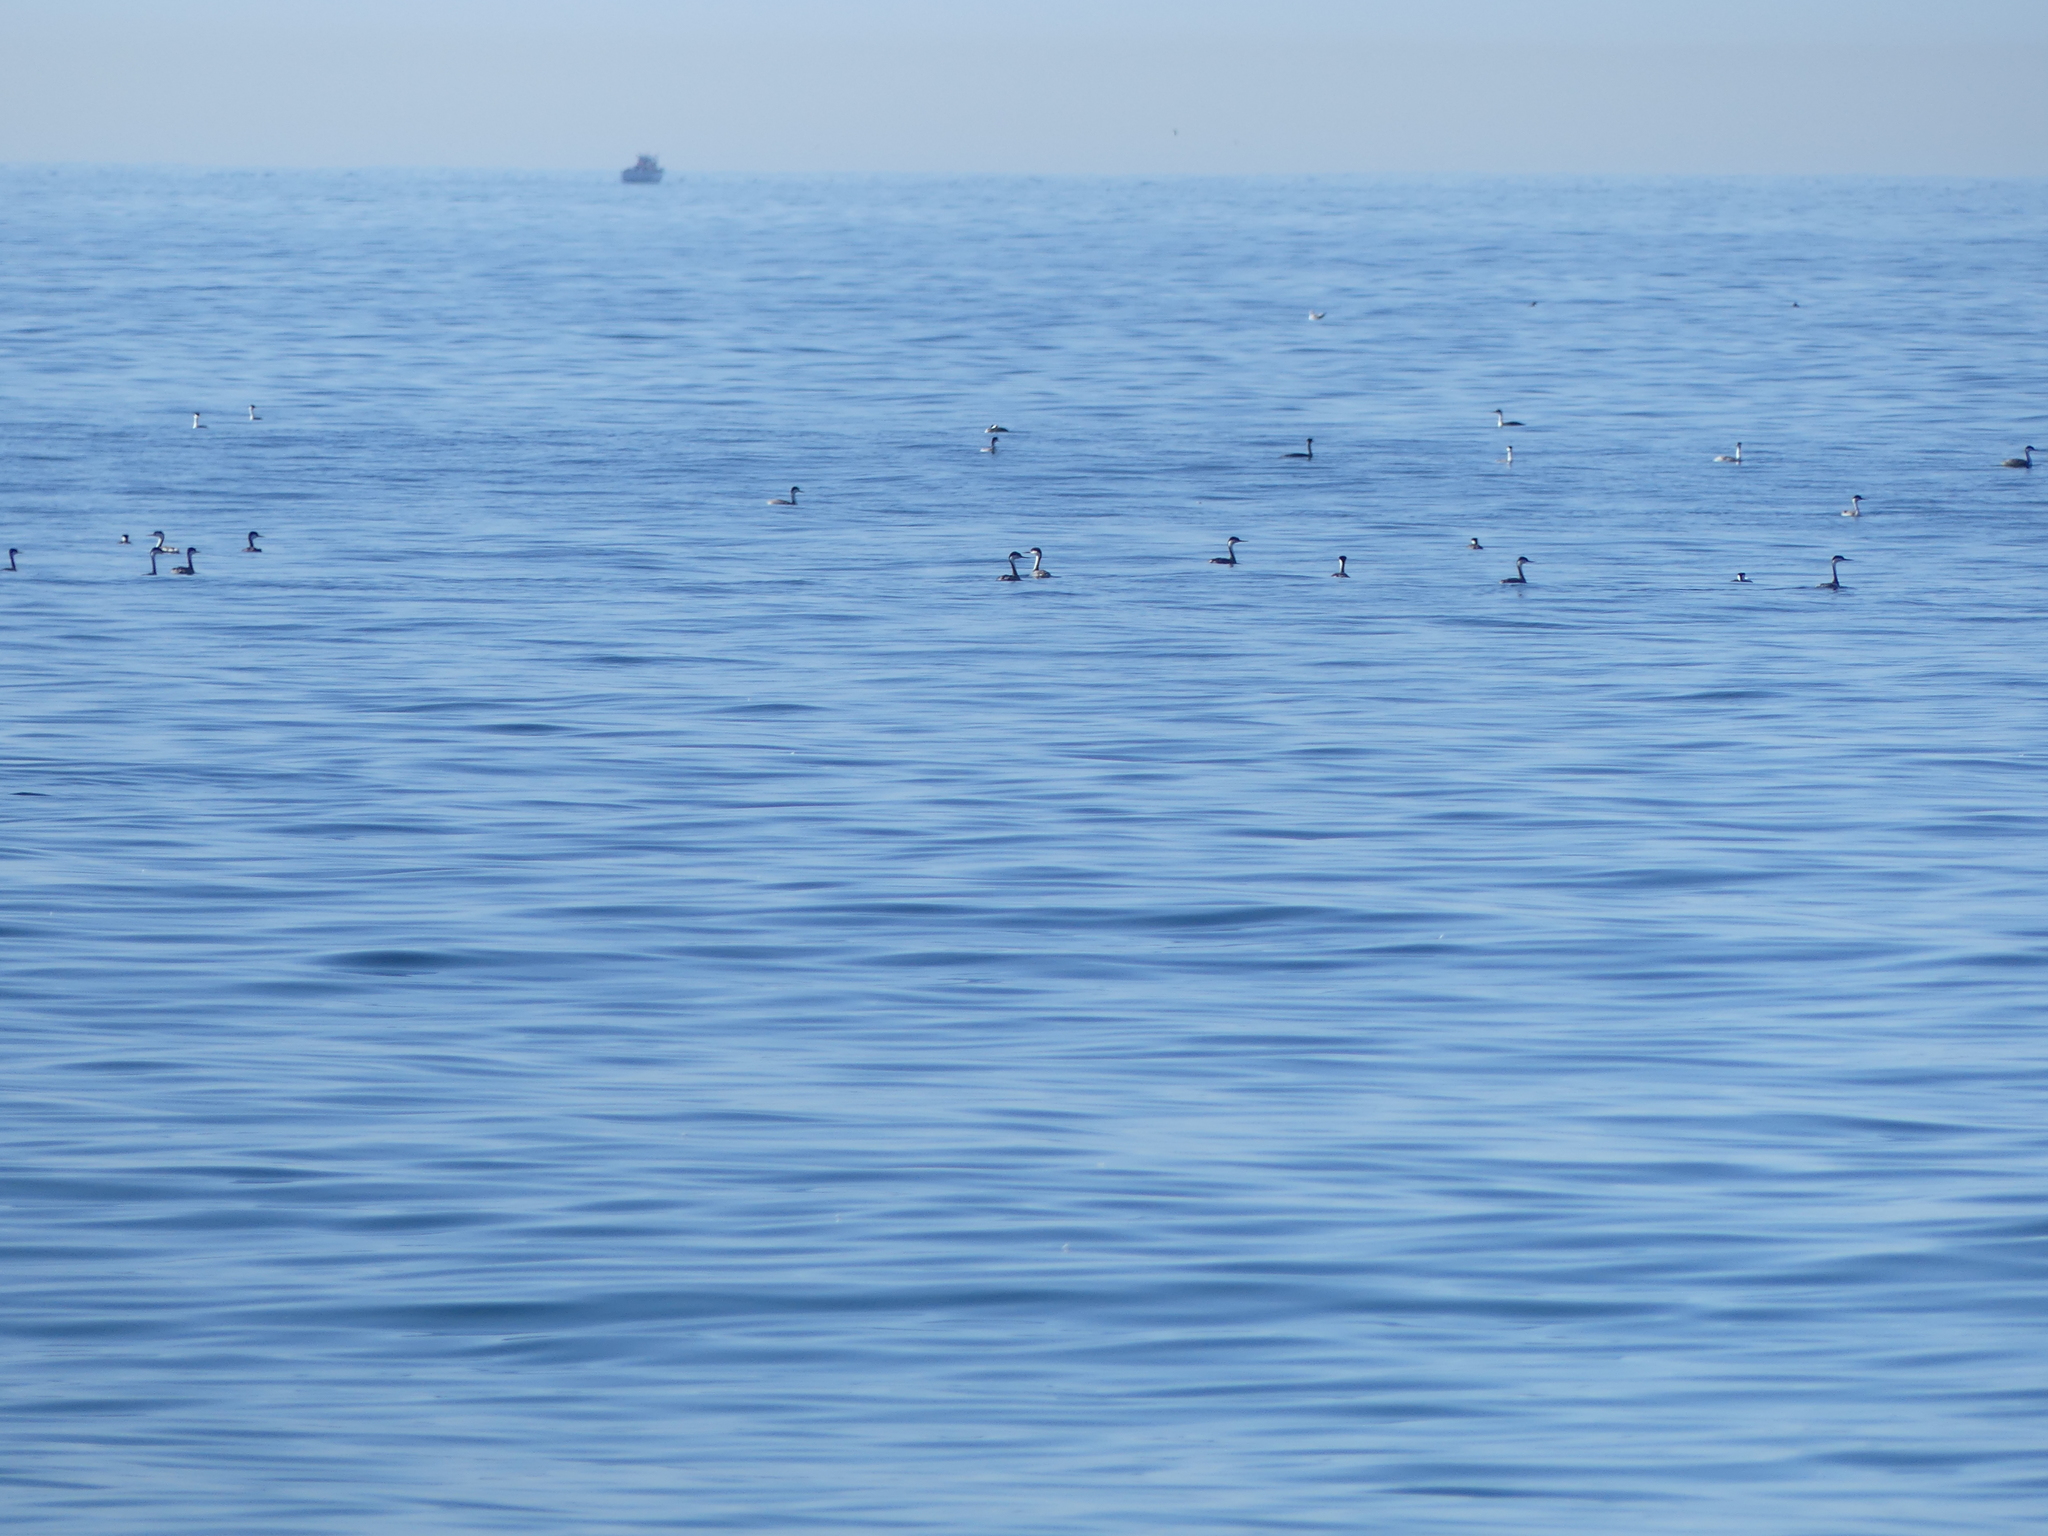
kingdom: Animalia
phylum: Chordata
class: Aves
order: Podicipediformes
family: Podicipedidae
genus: Aechmophorus
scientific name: Aechmophorus
